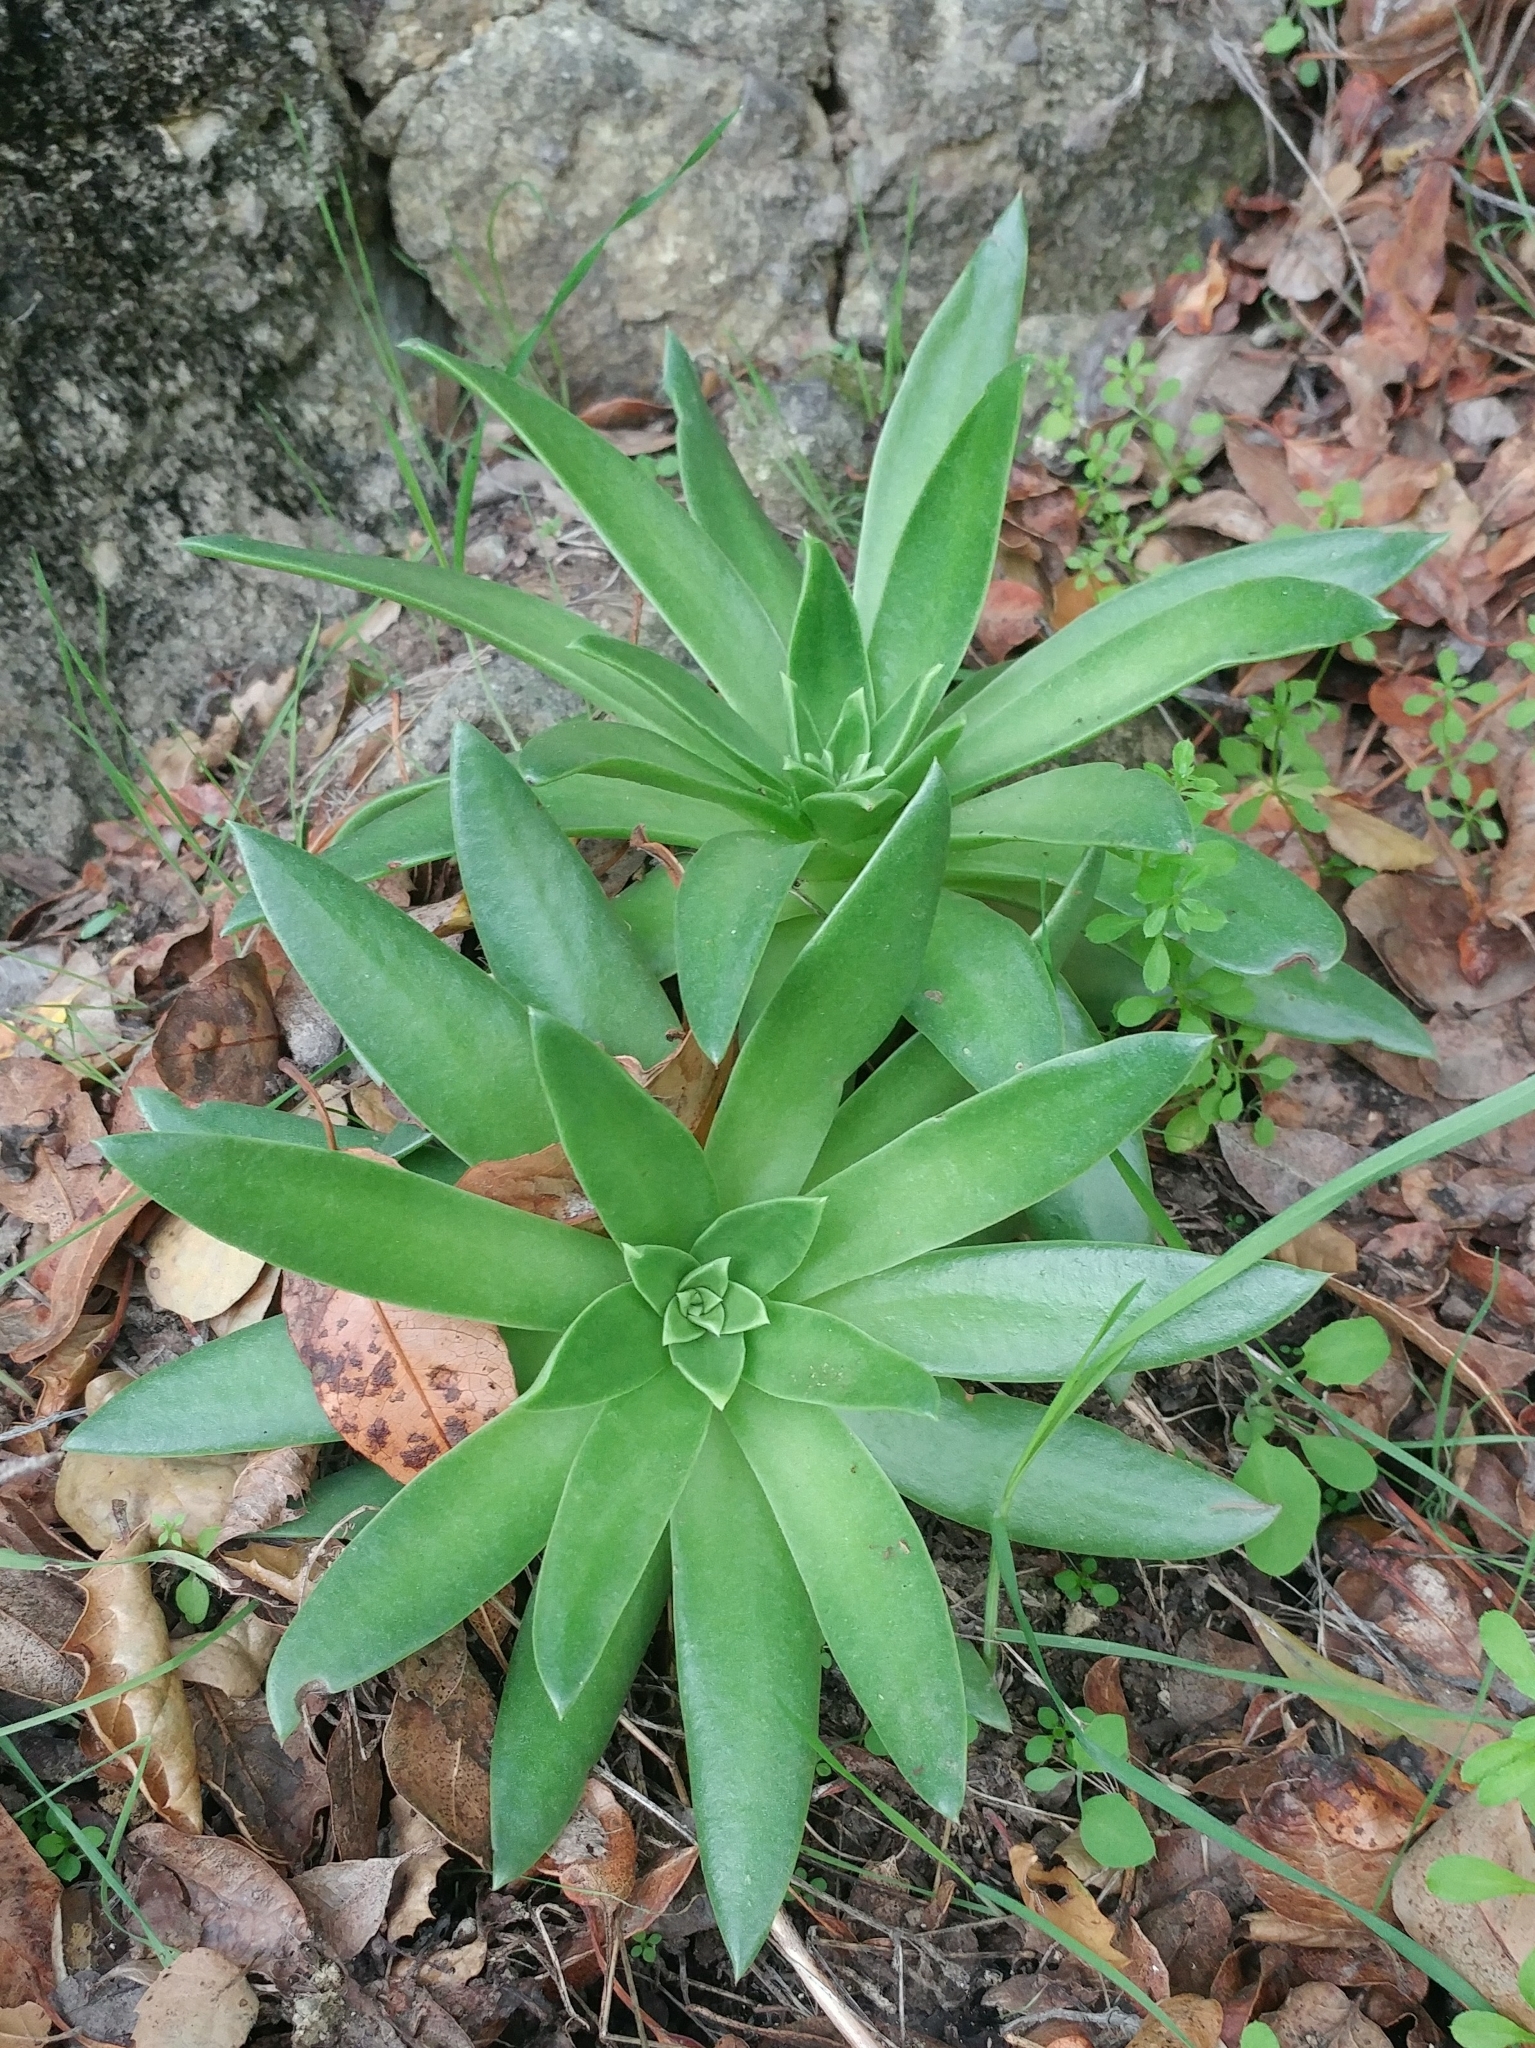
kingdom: Plantae
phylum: Tracheophyta
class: Magnoliopsida
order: Saxifragales
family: Crassulaceae
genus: Dudleya
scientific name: Dudleya candelabrum
